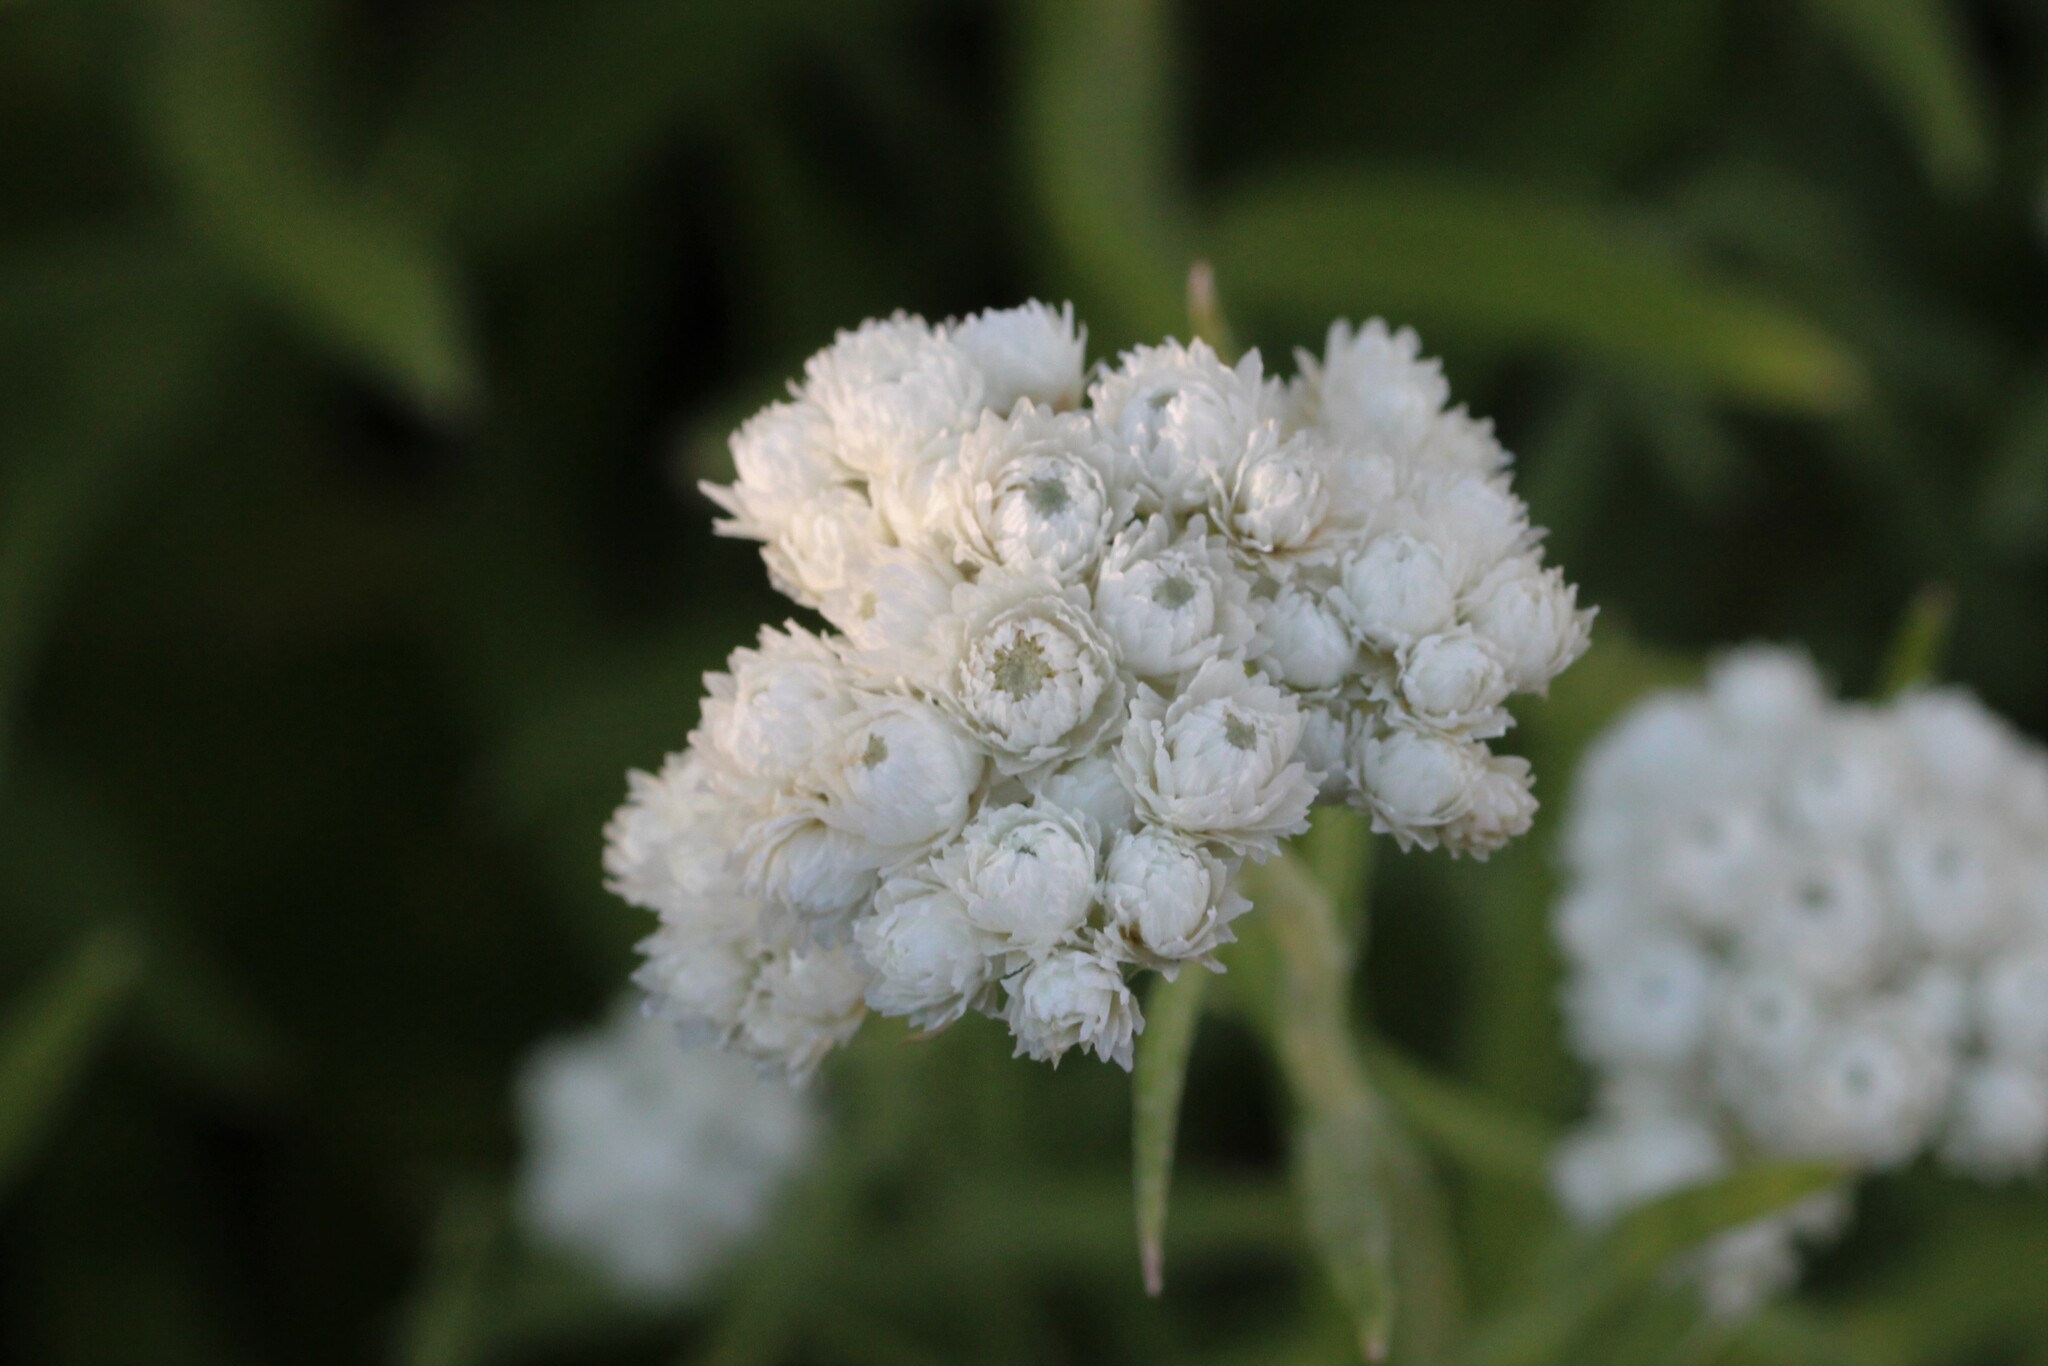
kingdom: Plantae
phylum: Tracheophyta
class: Magnoliopsida
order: Asterales
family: Asteraceae
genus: Anaphalis
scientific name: Anaphalis margaritacea
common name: Pearly everlasting
